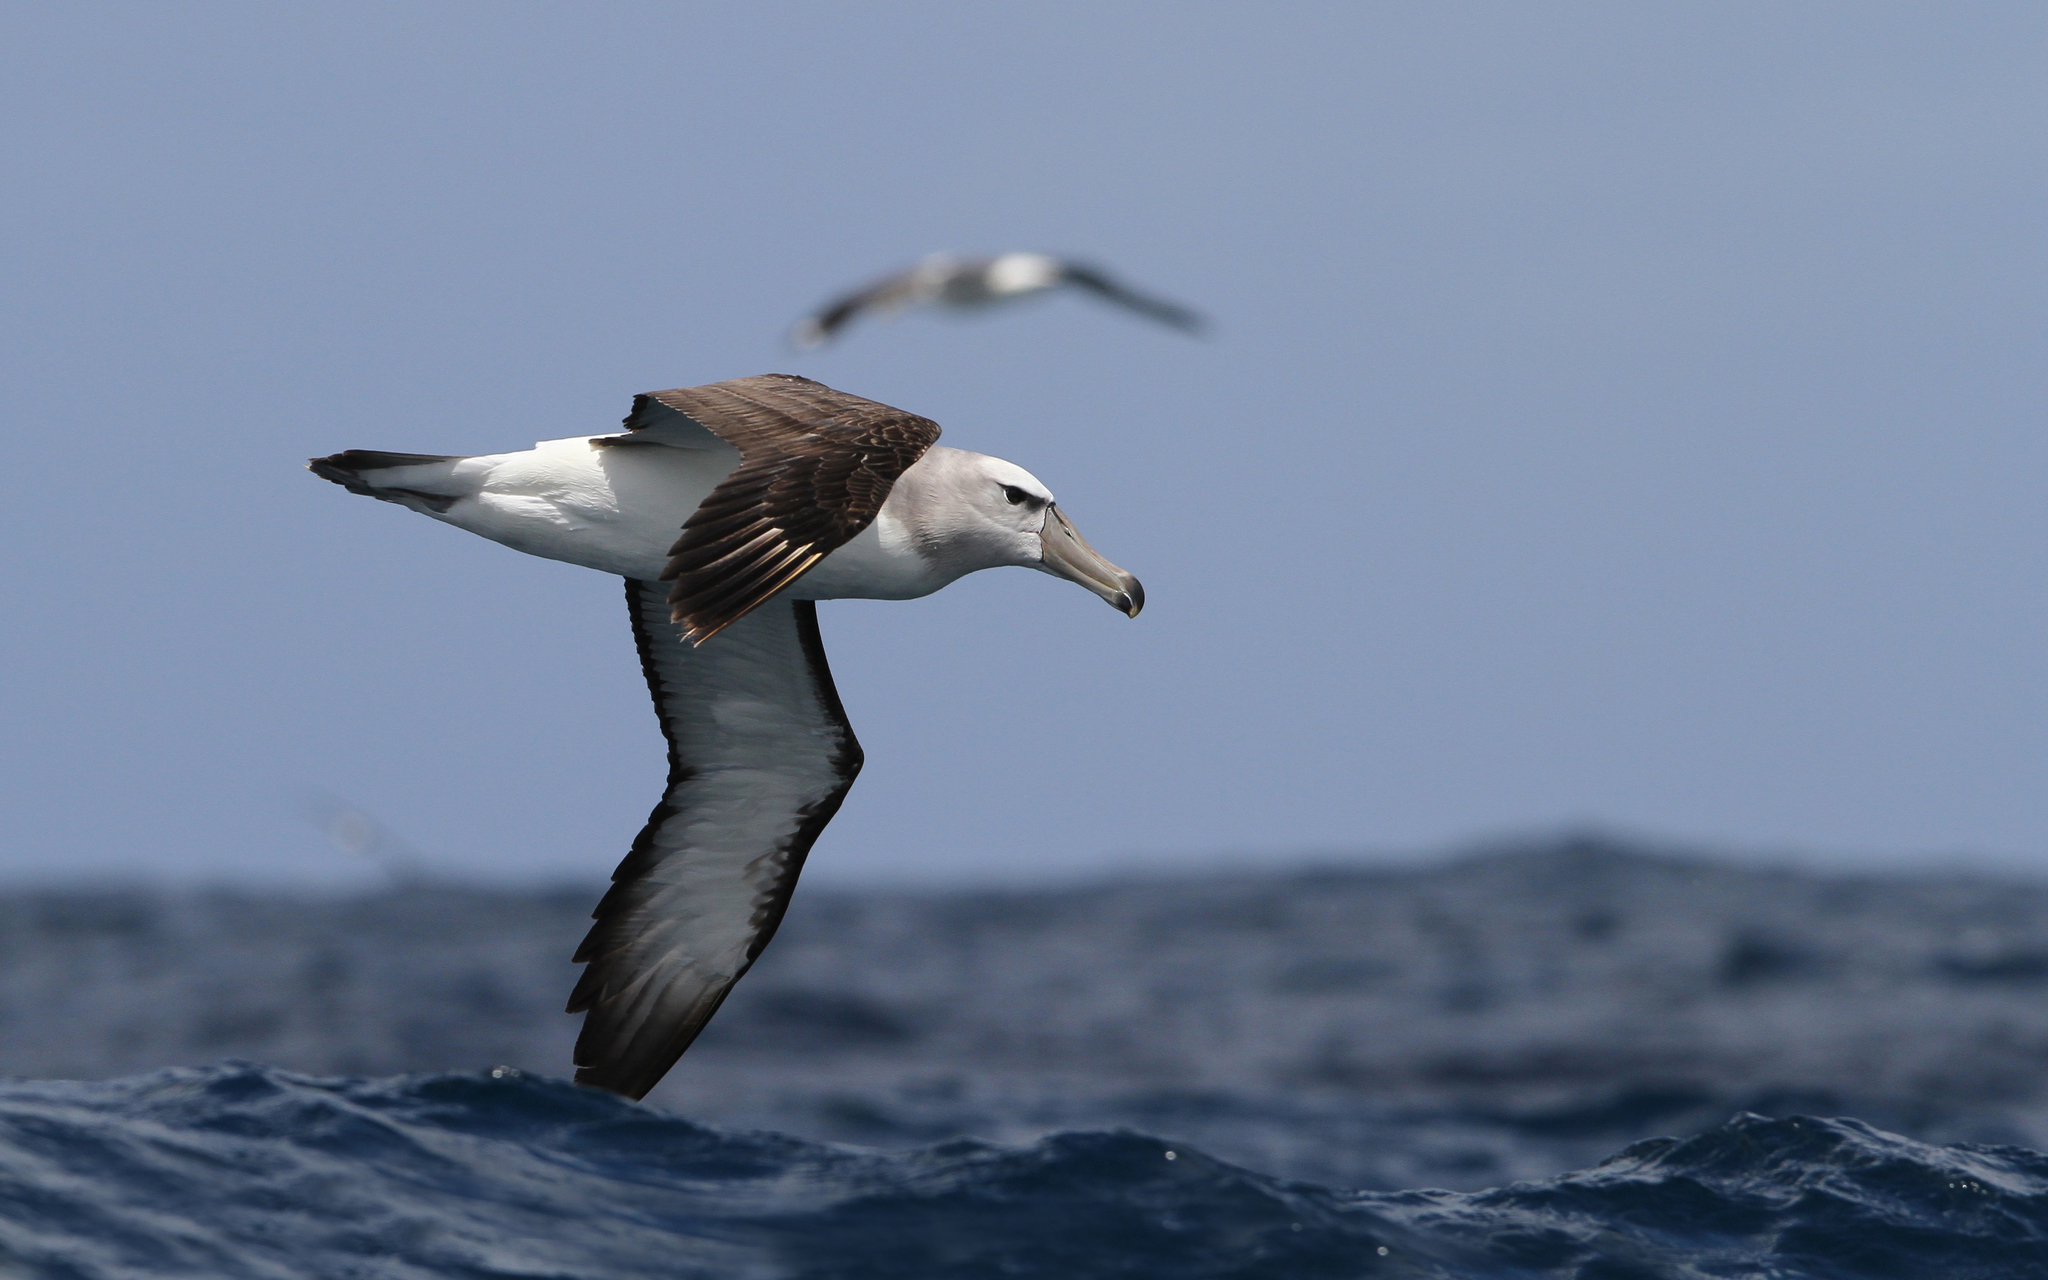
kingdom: Animalia
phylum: Chordata
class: Aves
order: Procellariiformes
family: Diomedeidae
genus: Thalassarche
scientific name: Thalassarche cauta
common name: Shy albatross
